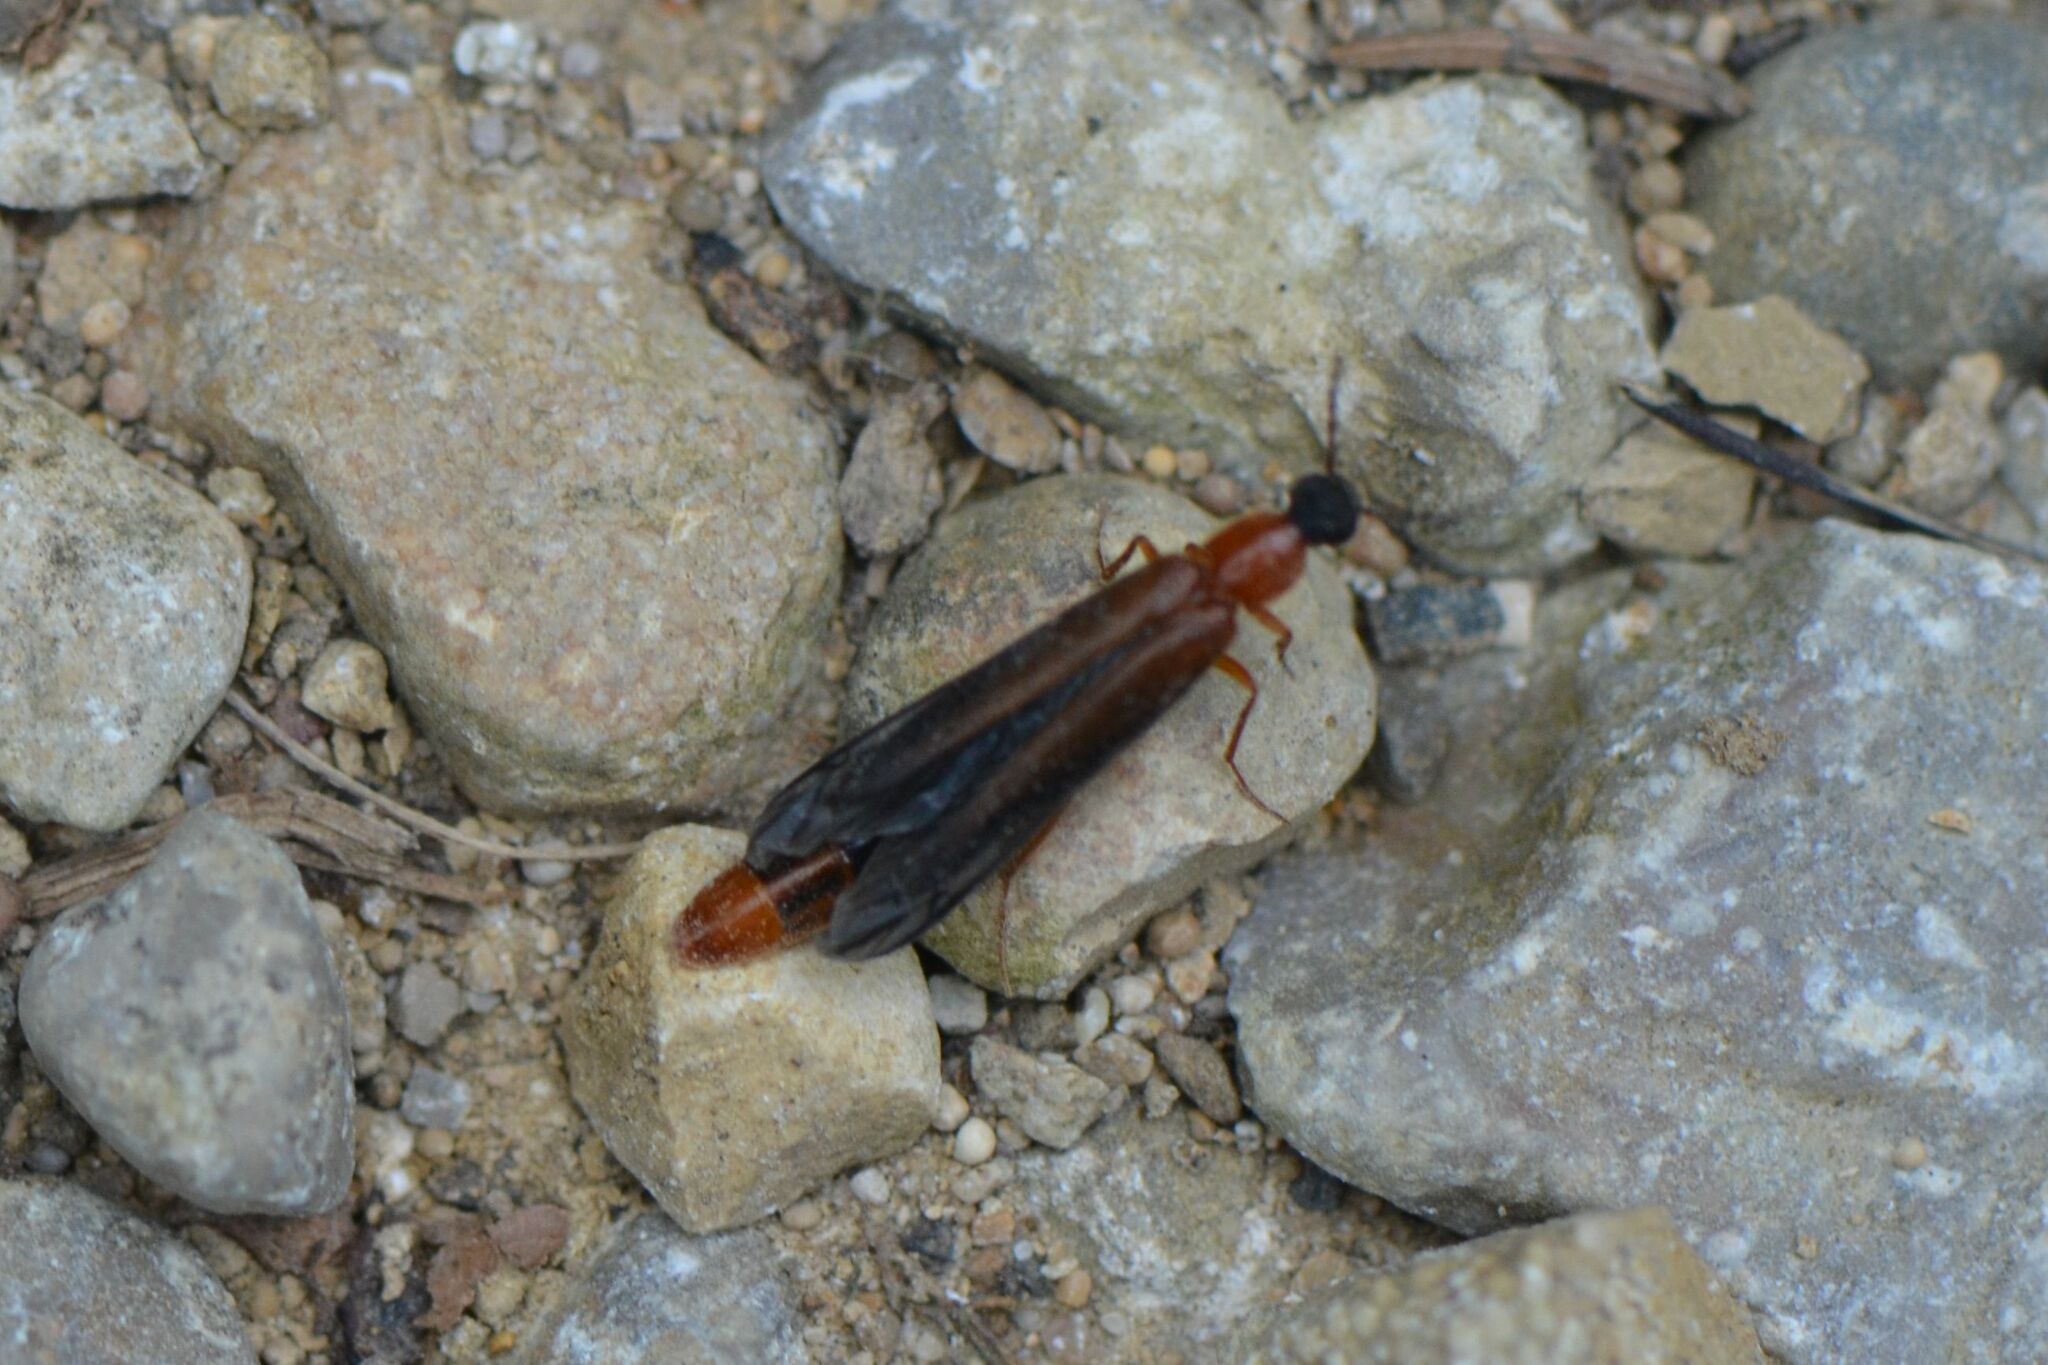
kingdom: Animalia
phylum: Arthropoda
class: Insecta
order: Coleoptera
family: Lymexylidae
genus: Lymexylon
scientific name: Lymexylon navale
